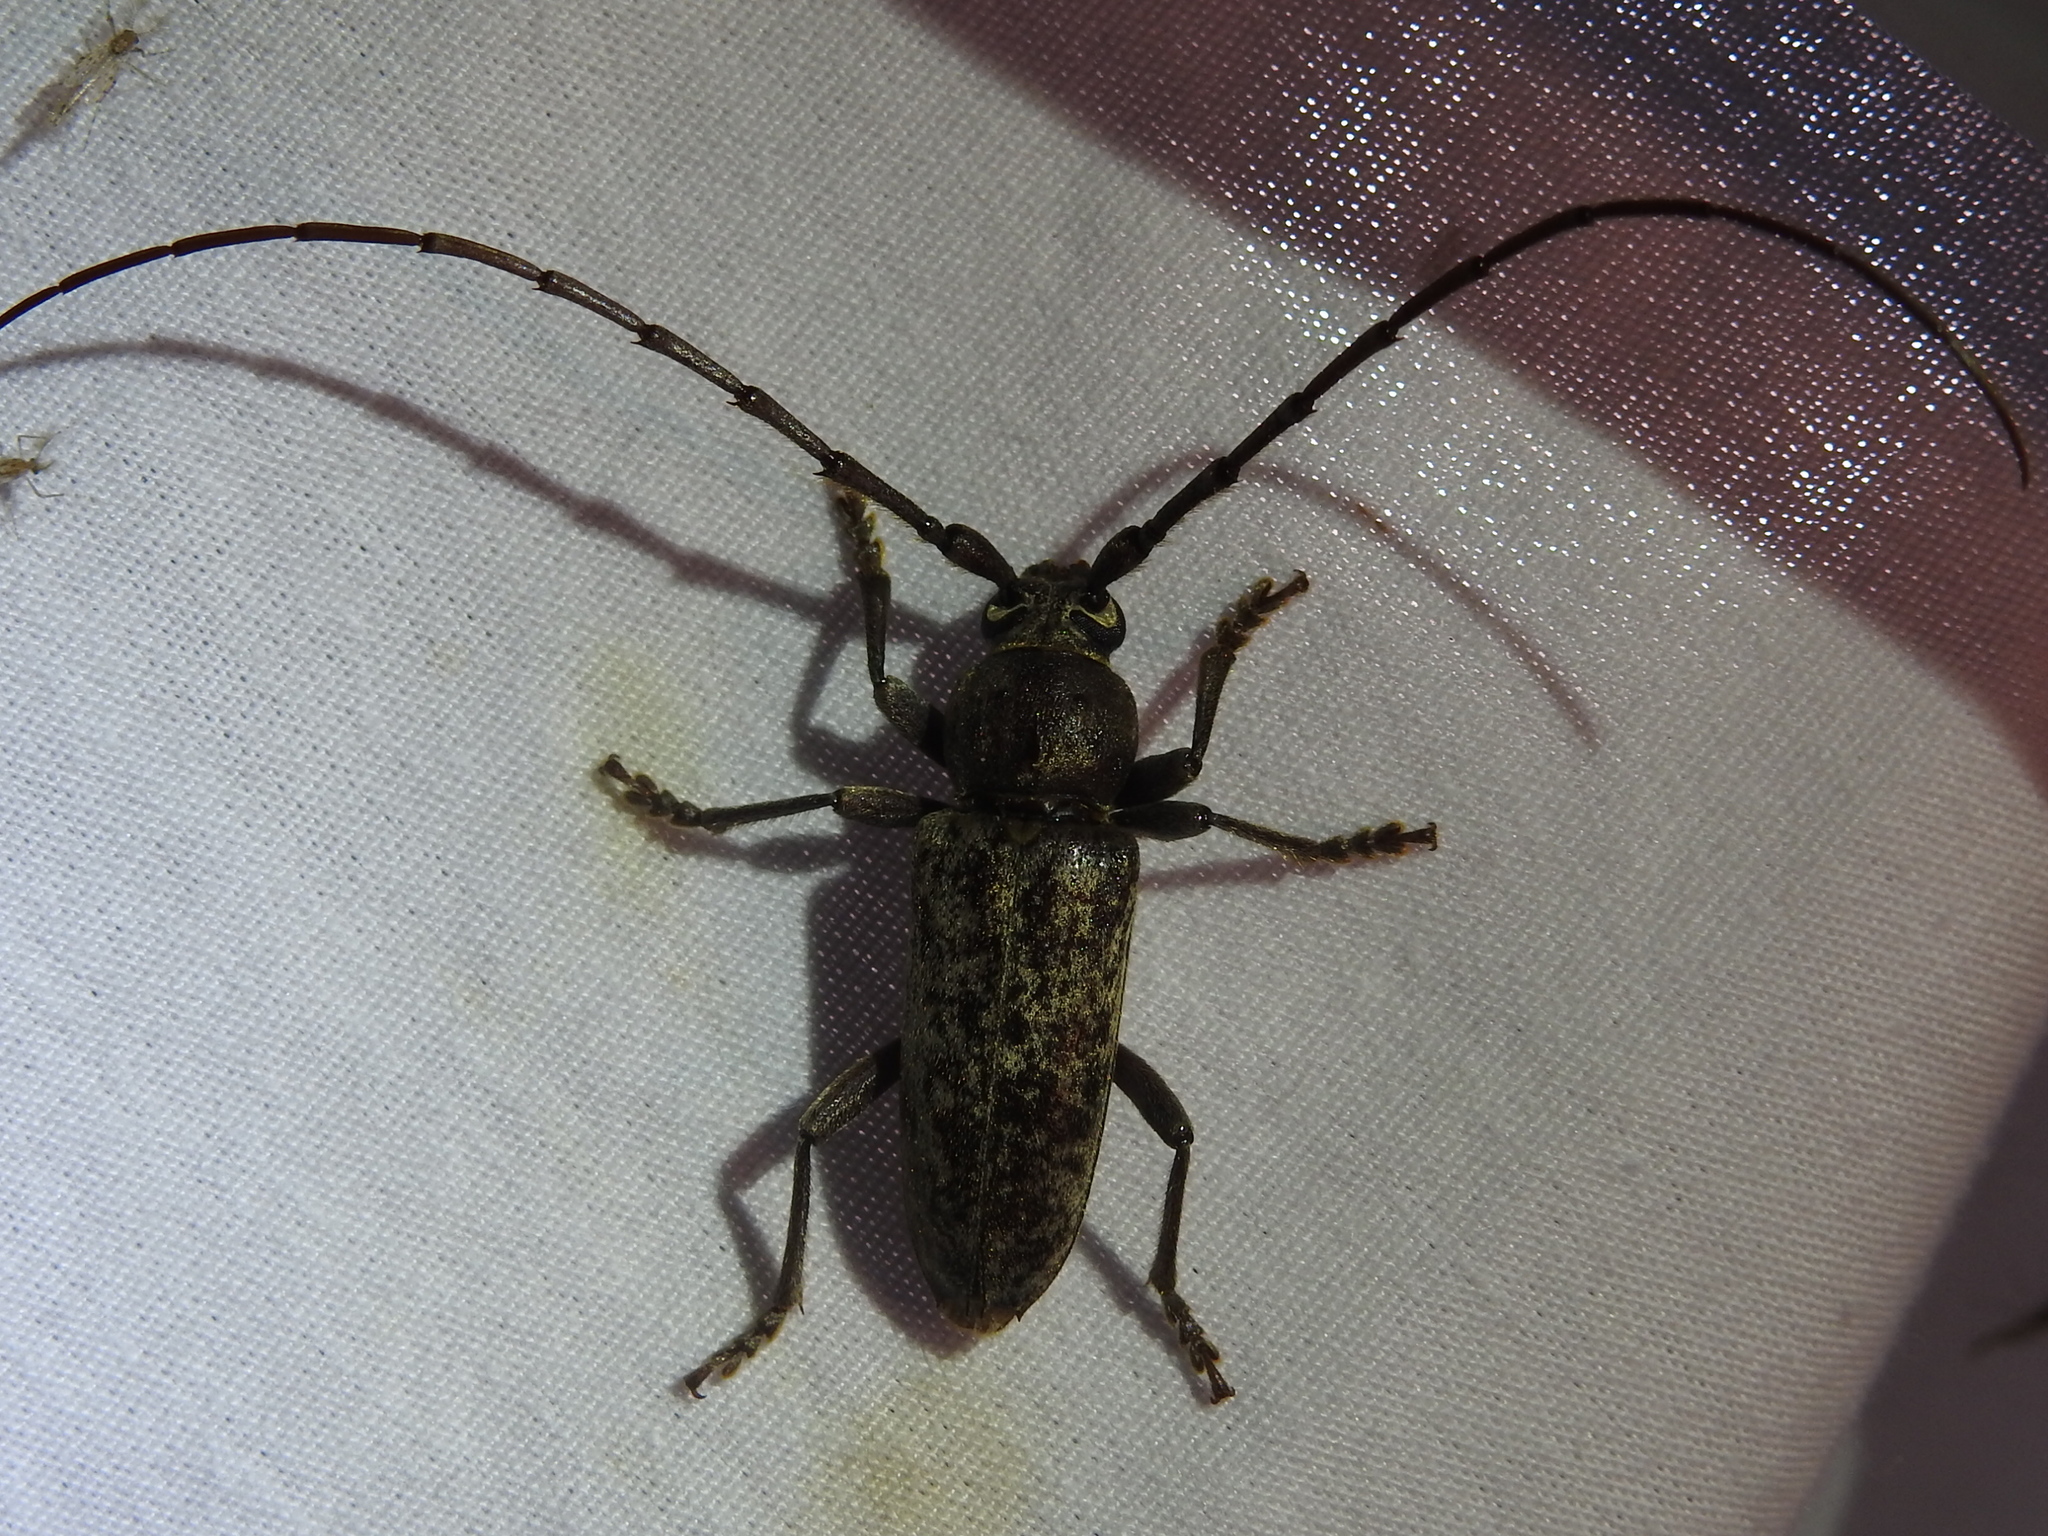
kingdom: Animalia
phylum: Arthropoda
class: Insecta
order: Coleoptera
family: Cerambycidae
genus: Enaphalodes
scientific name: Enaphalodes atomarius
